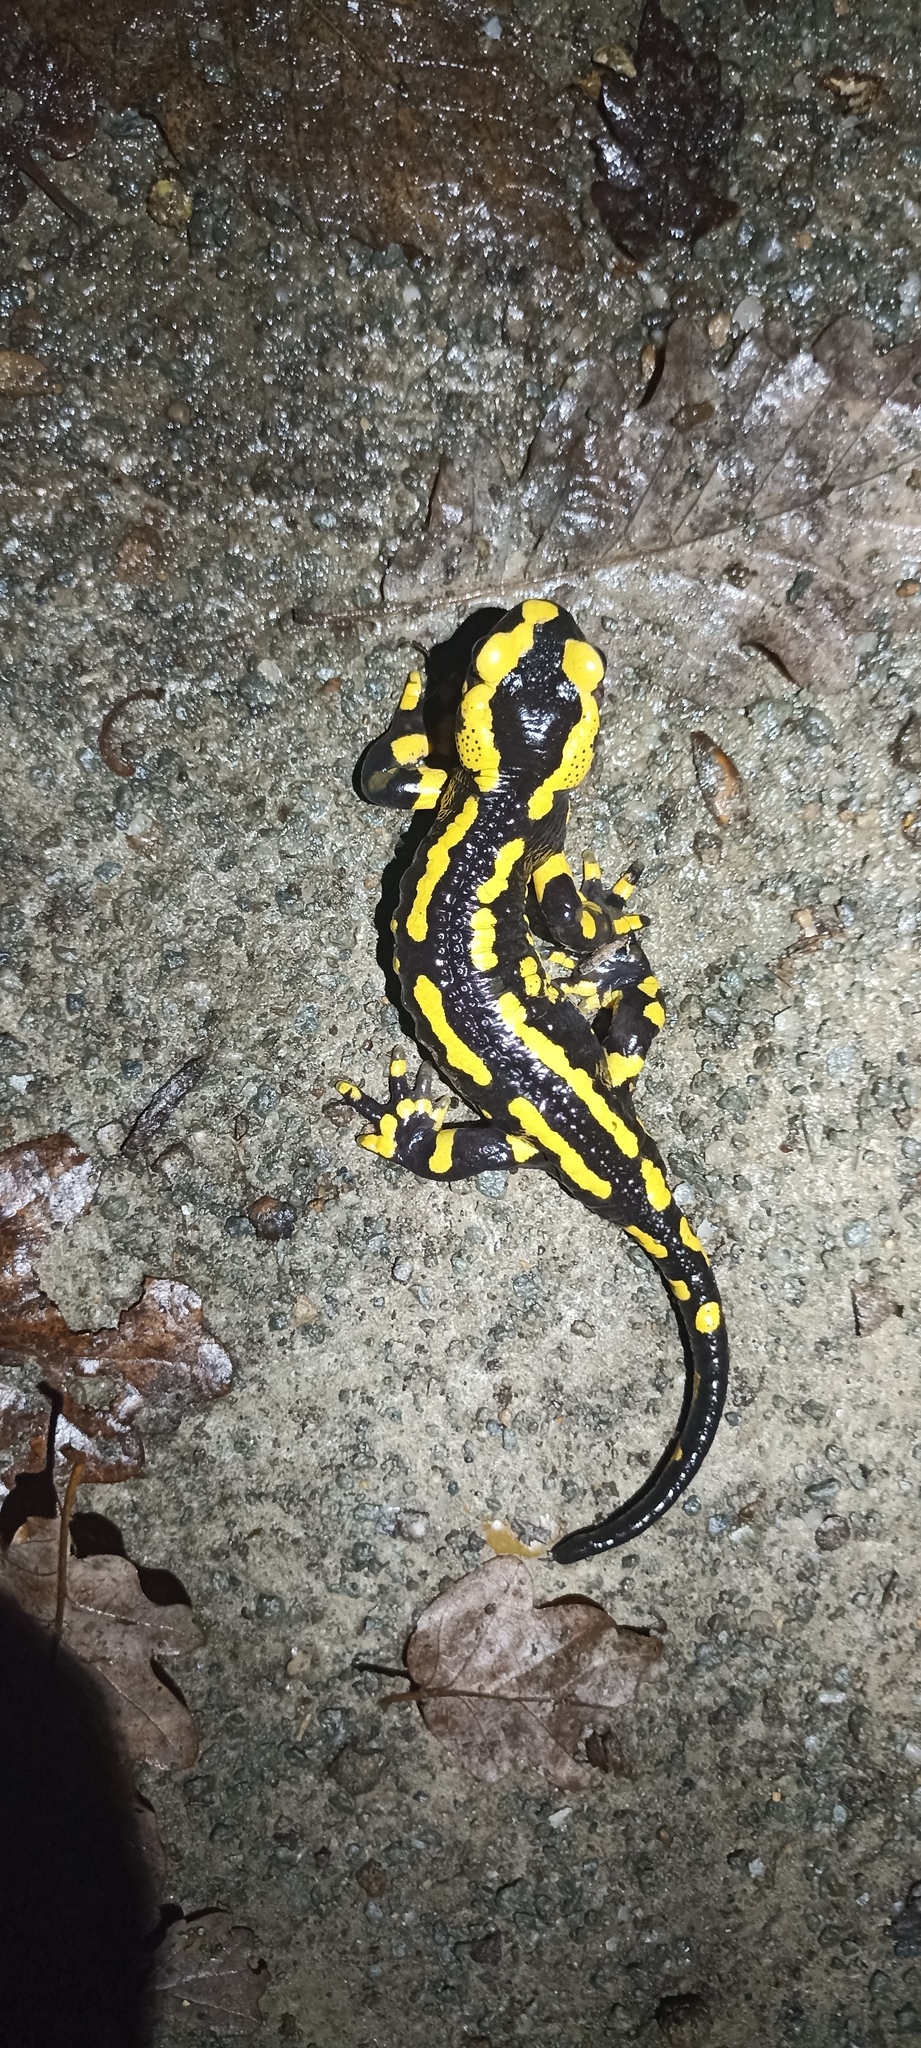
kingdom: Animalia
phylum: Chordata
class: Amphibia
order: Caudata
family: Salamandridae
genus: Salamandra
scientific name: Salamandra salamandra
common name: Fire salamander
